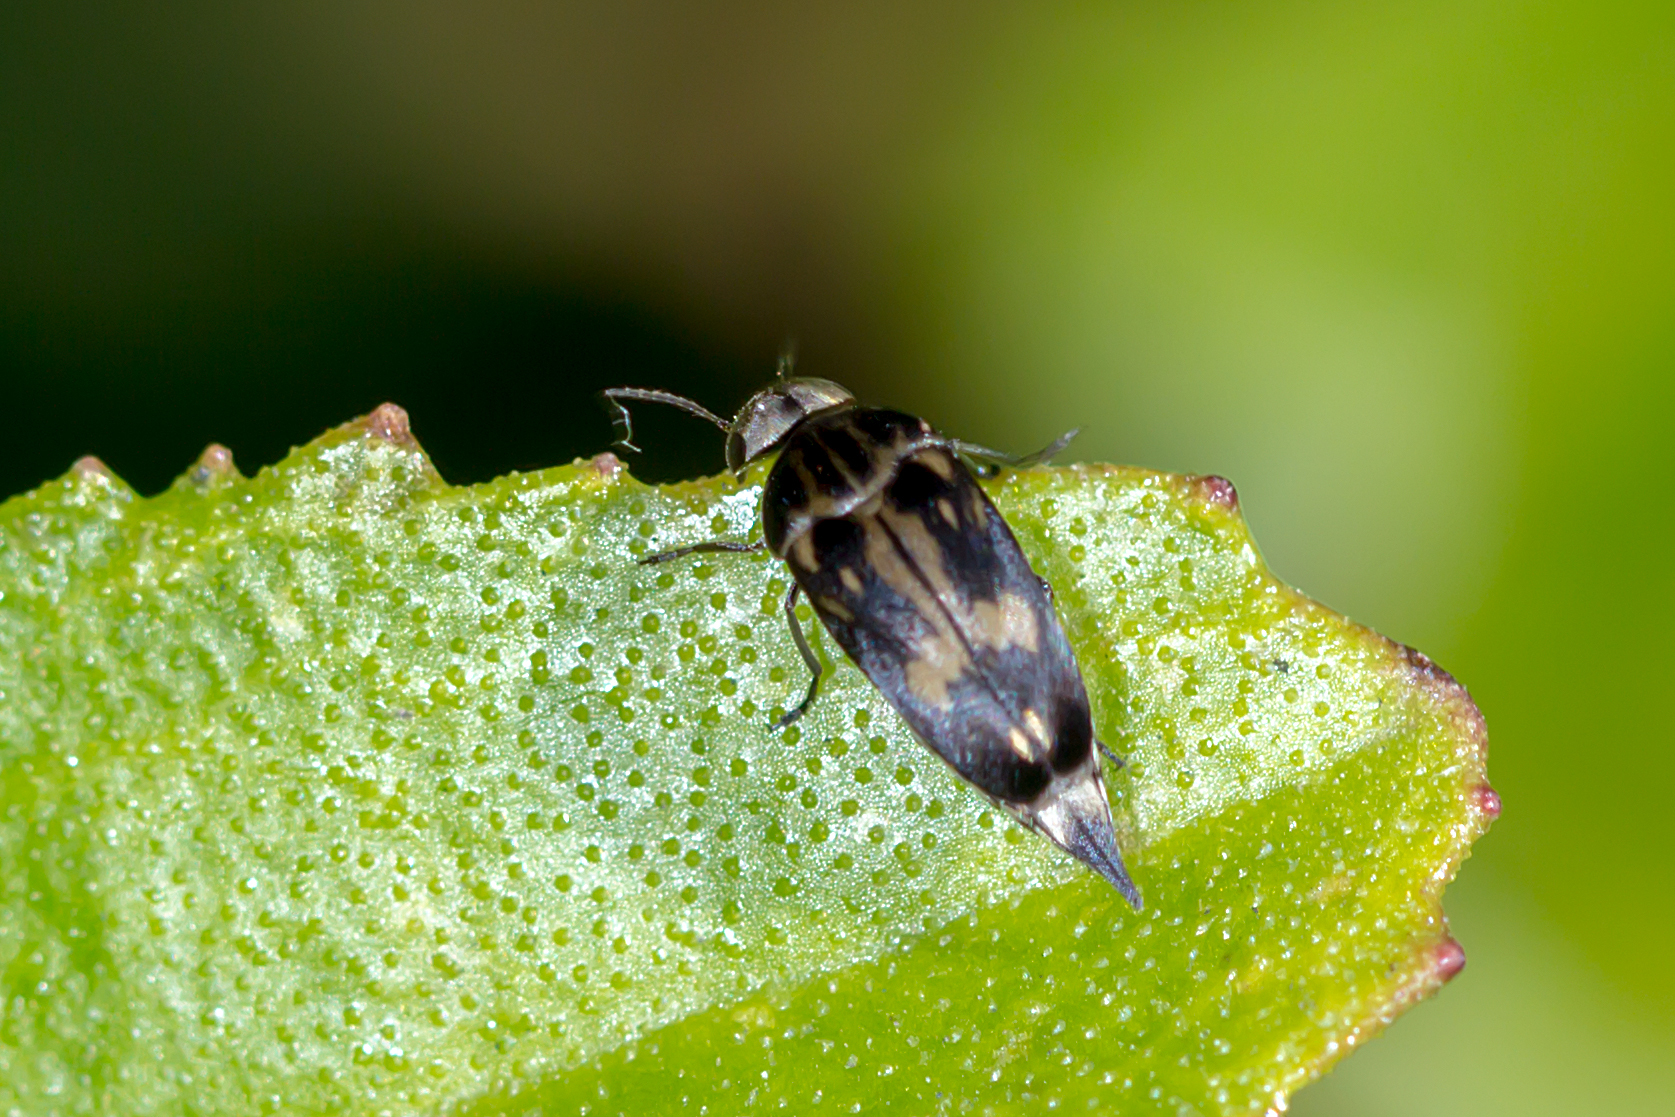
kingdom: Animalia
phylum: Arthropoda
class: Insecta
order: Coleoptera
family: Mordellidae
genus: Zeamordella
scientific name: Zeamordella monacha
